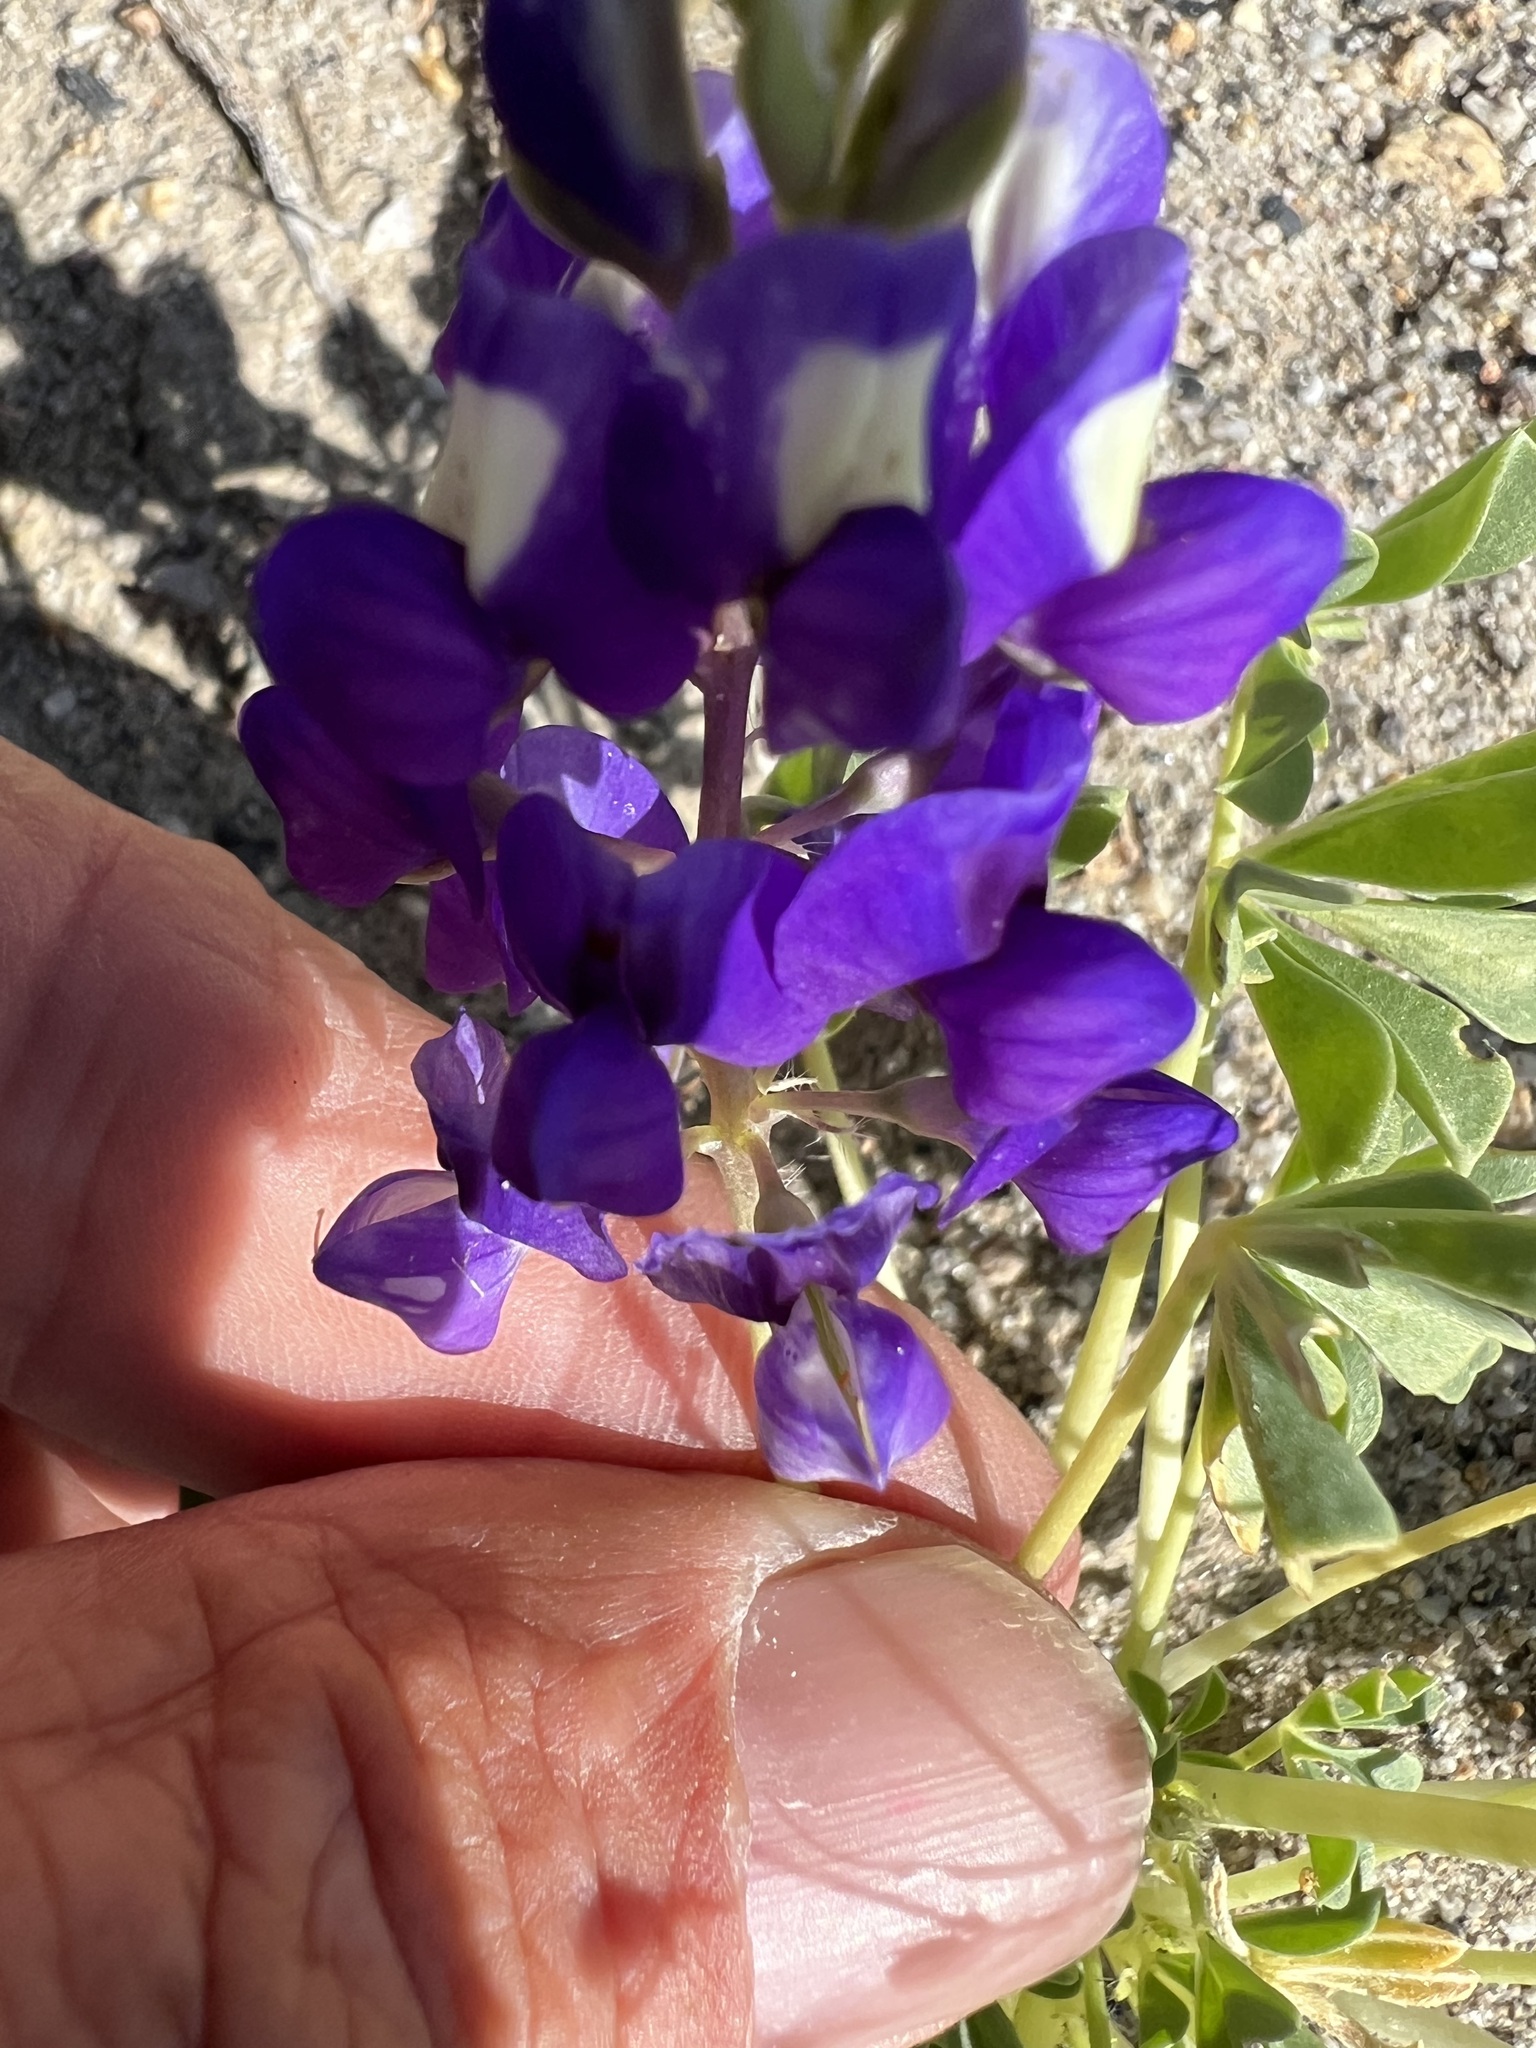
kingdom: Plantae
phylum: Tracheophyta
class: Magnoliopsida
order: Fabales
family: Fabaceae
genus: Lupinus
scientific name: Lupinus
